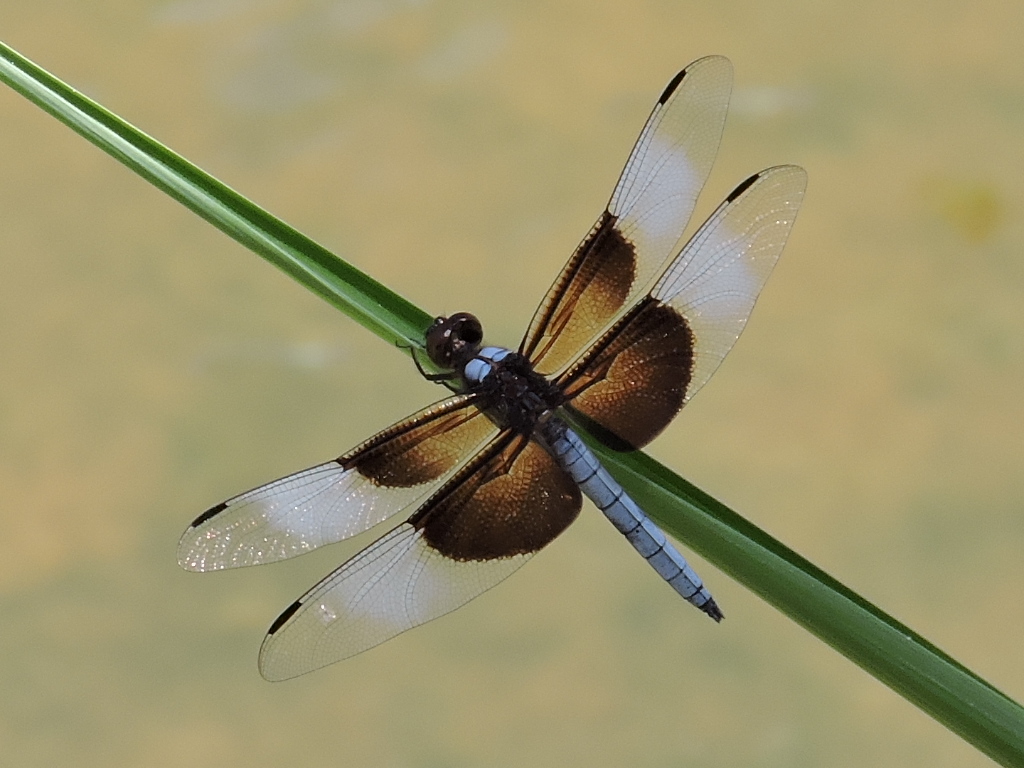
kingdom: Animalia
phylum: Arthropoda
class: Insecta
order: Odonata
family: Libellulidae
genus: Libellula
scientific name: Libellula luctuosa
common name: Widow skimmer
